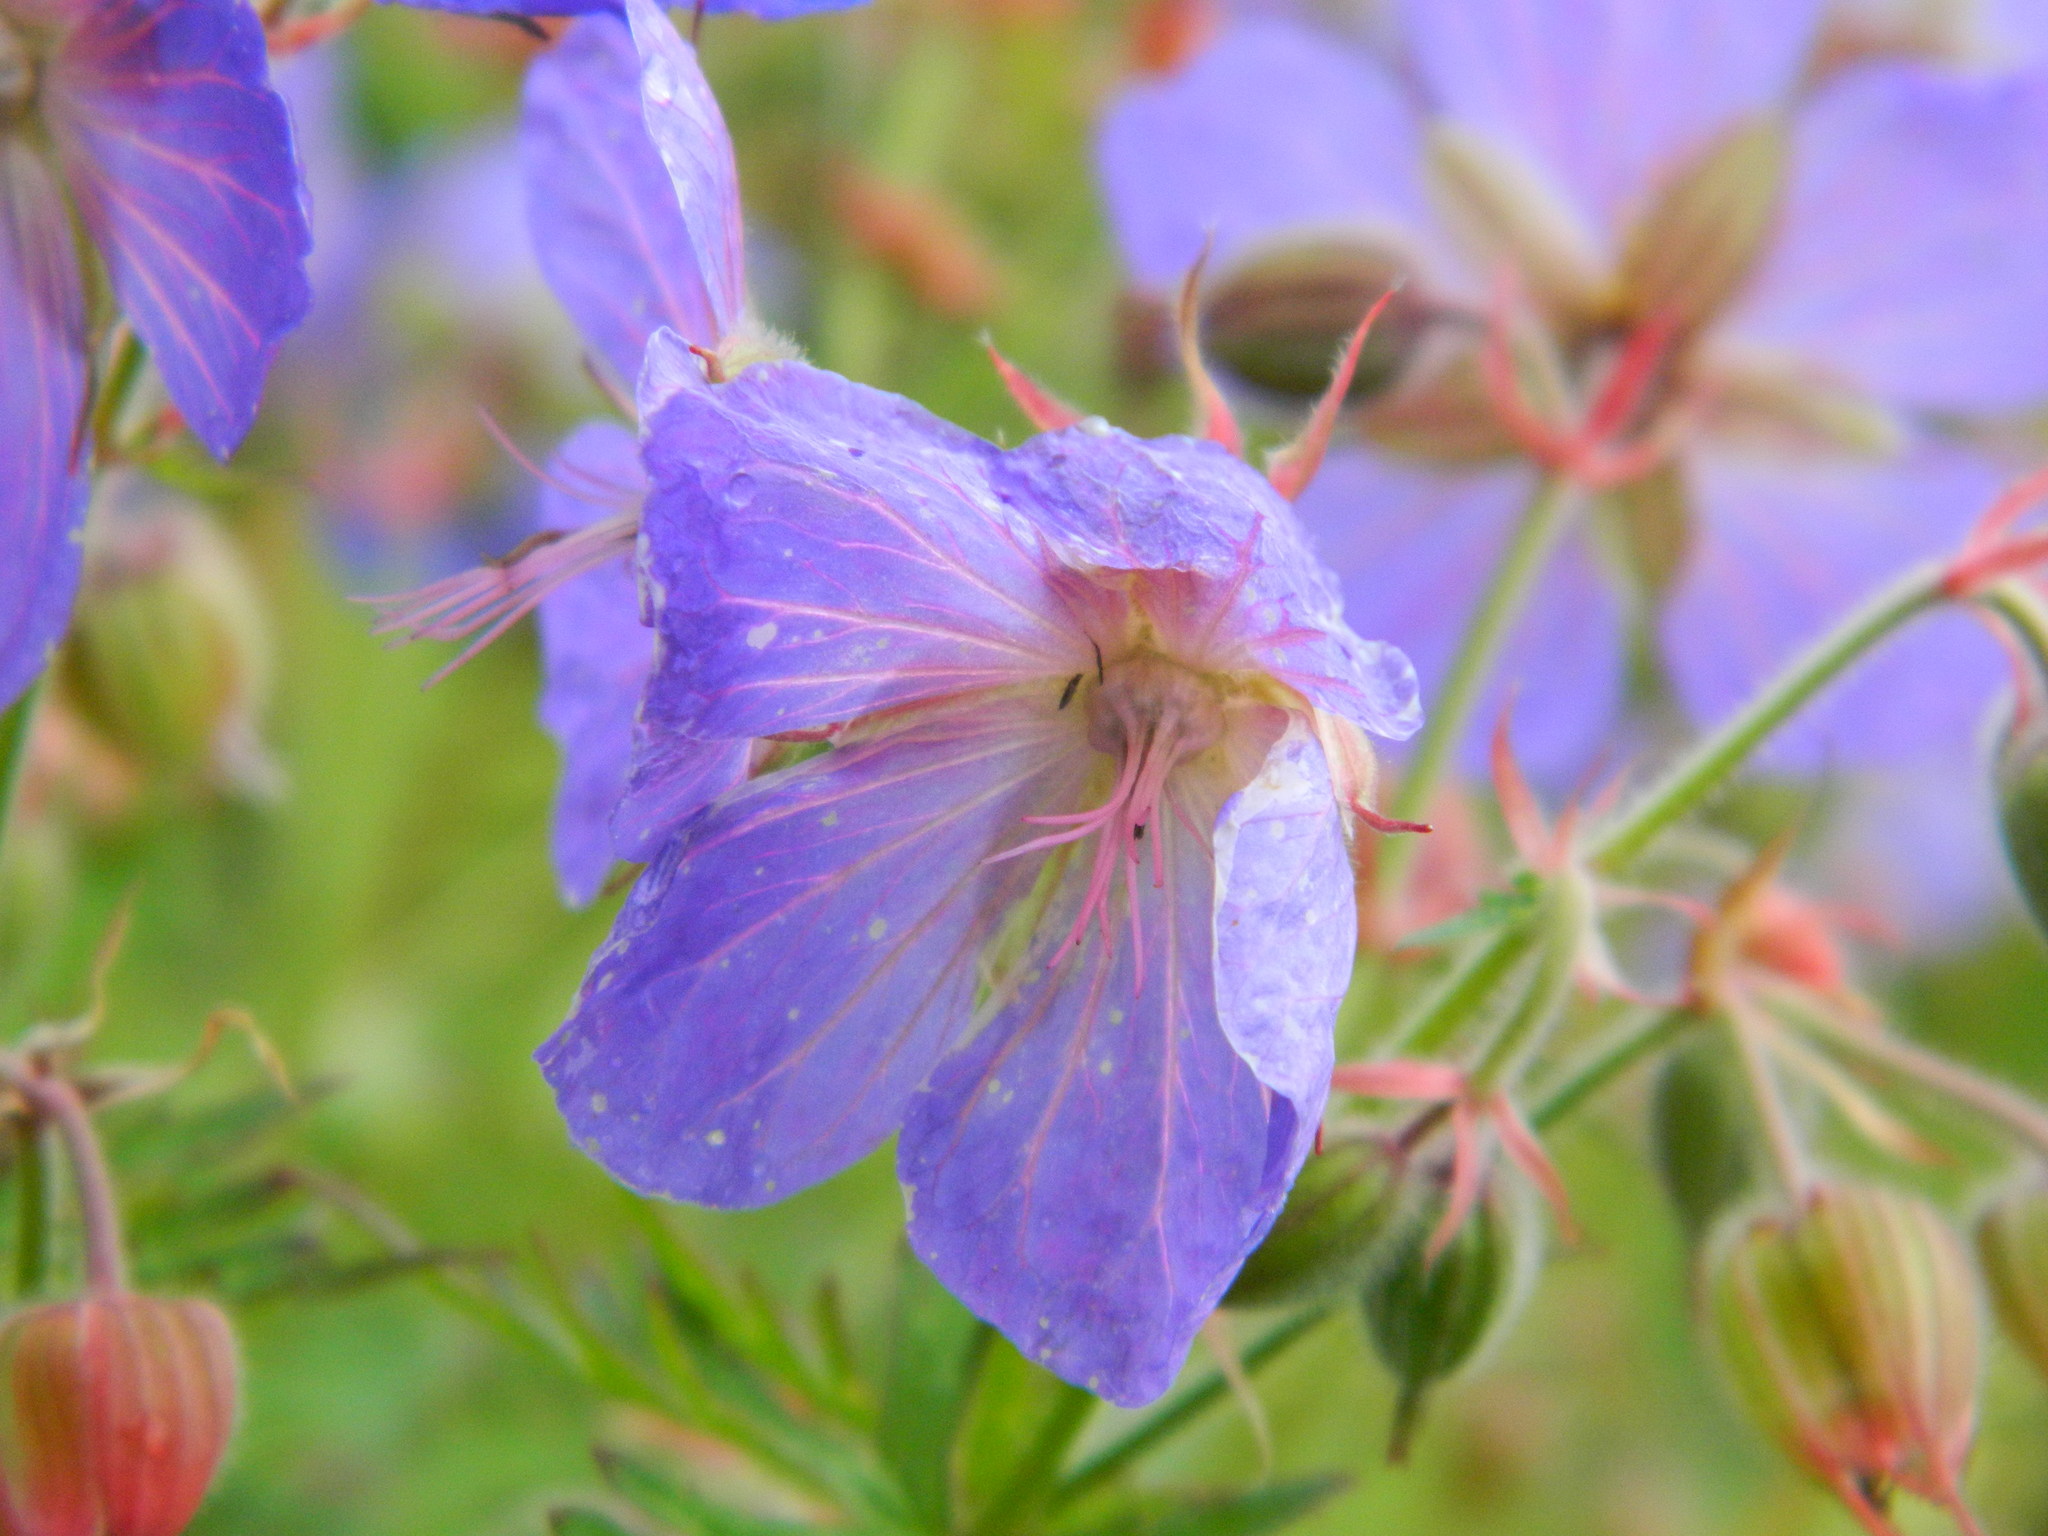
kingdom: Plantae
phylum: Tracheophyta
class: Magnoliopsida
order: Geraniales
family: Geraniaceae
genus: Geranium
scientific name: Geranium pratense
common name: Meadow crane's-bill
